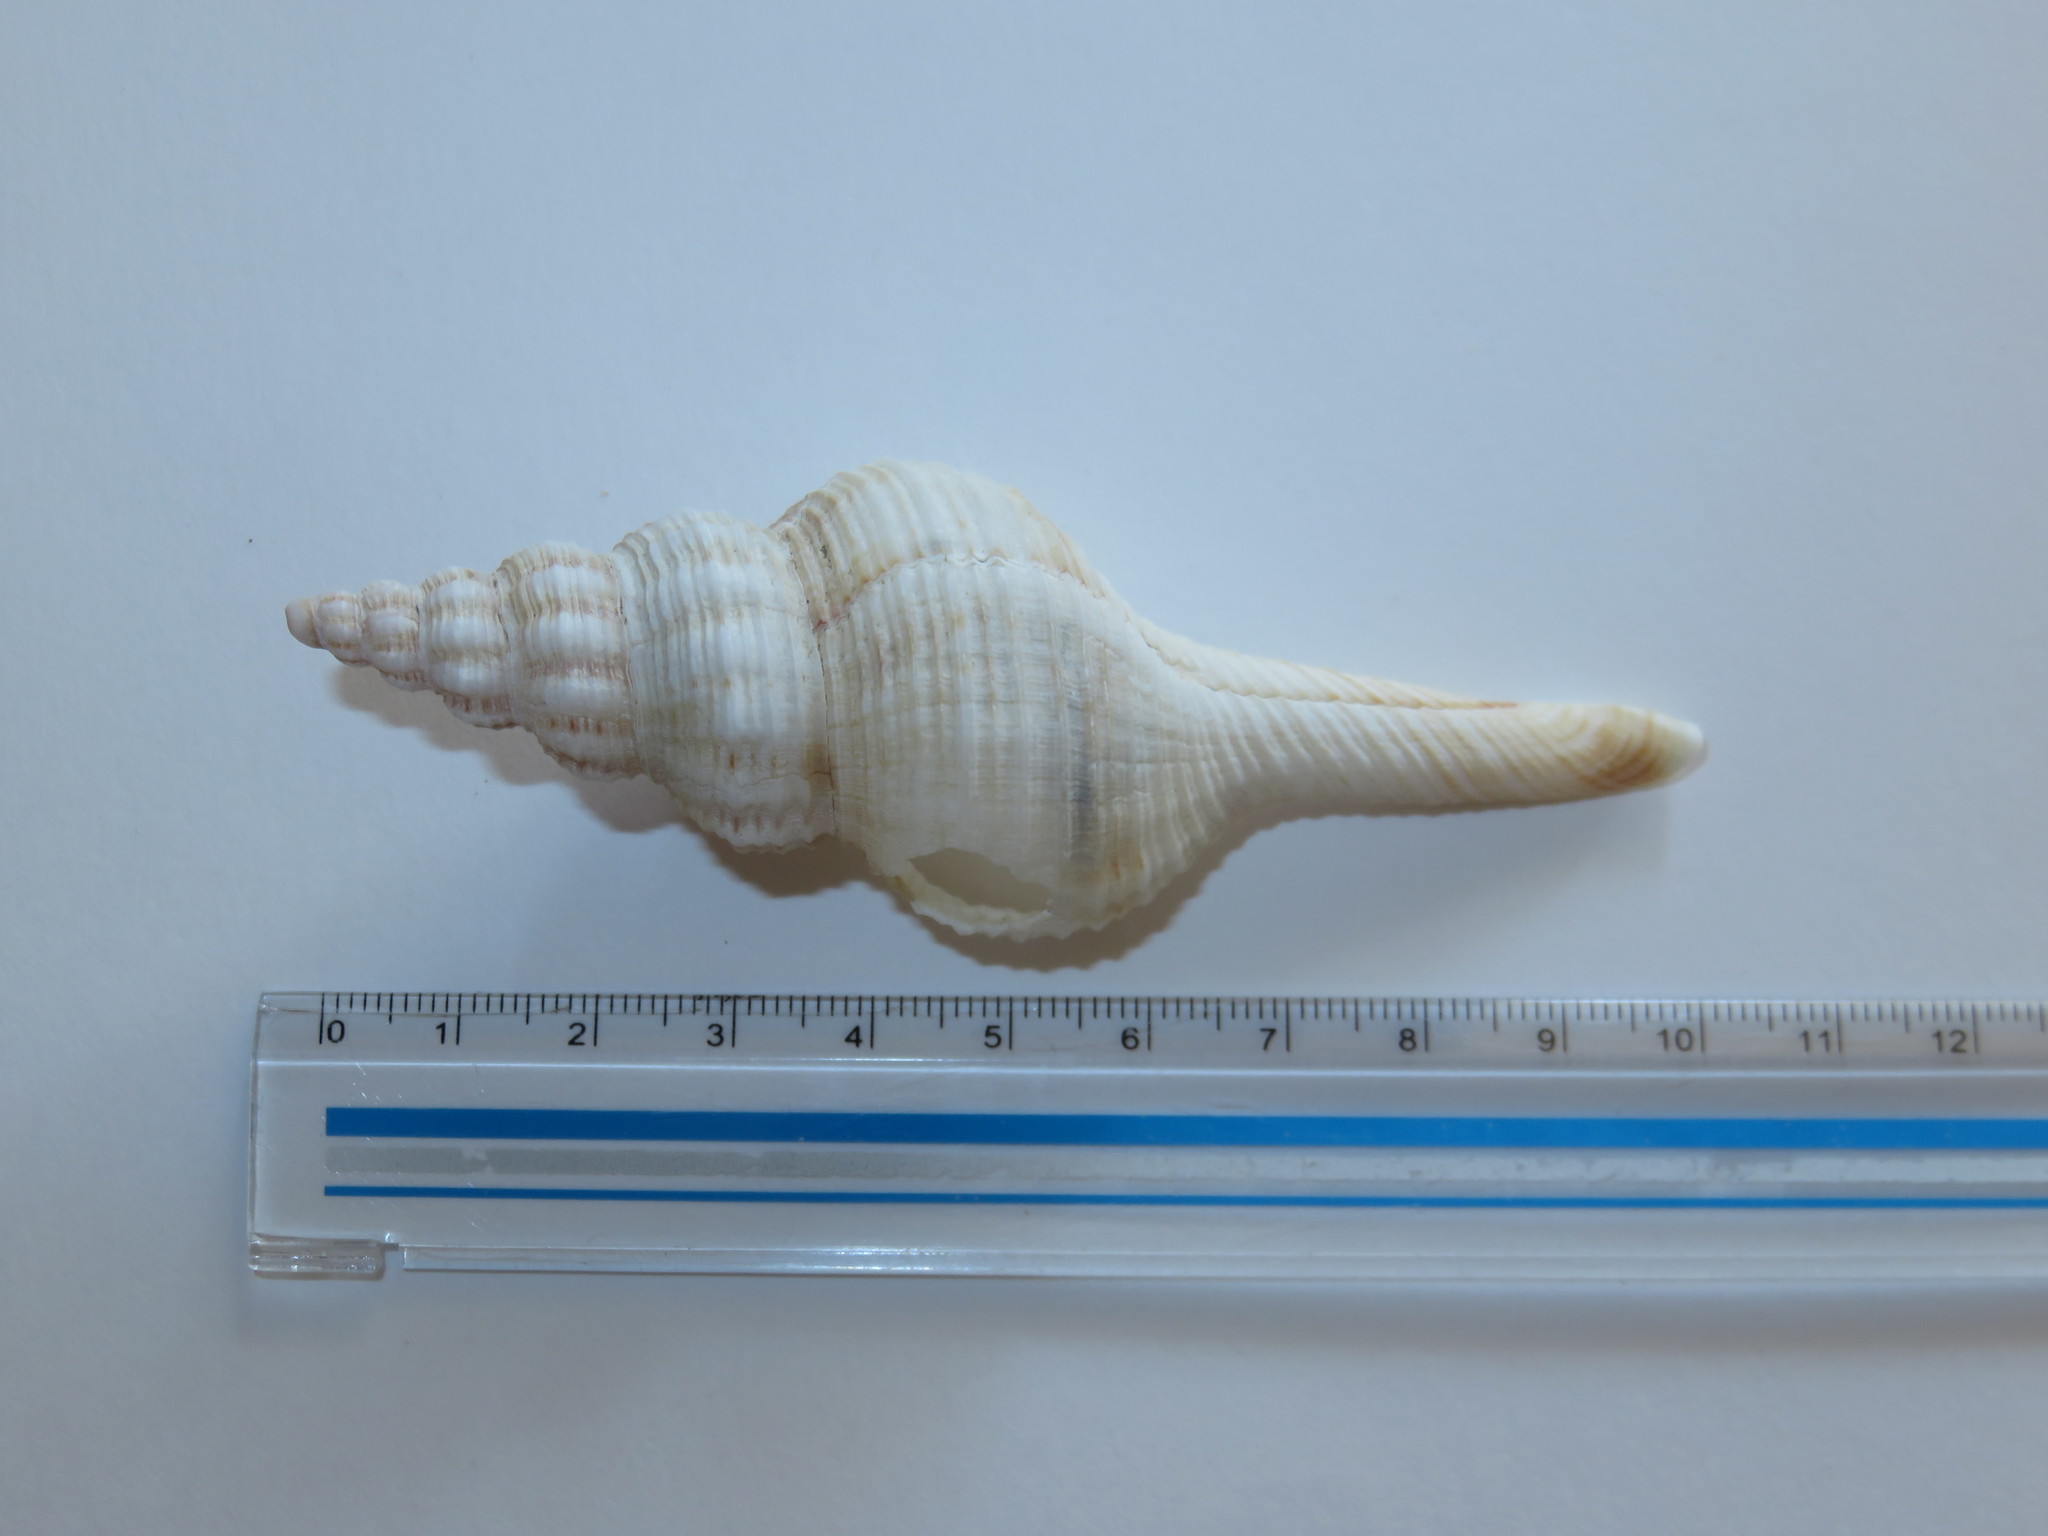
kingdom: Animalia
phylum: Mollusca
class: Gastropoda
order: Neogastropoda
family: Fasciolariidae
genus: Fusinus
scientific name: Fusinus ferrugineus
